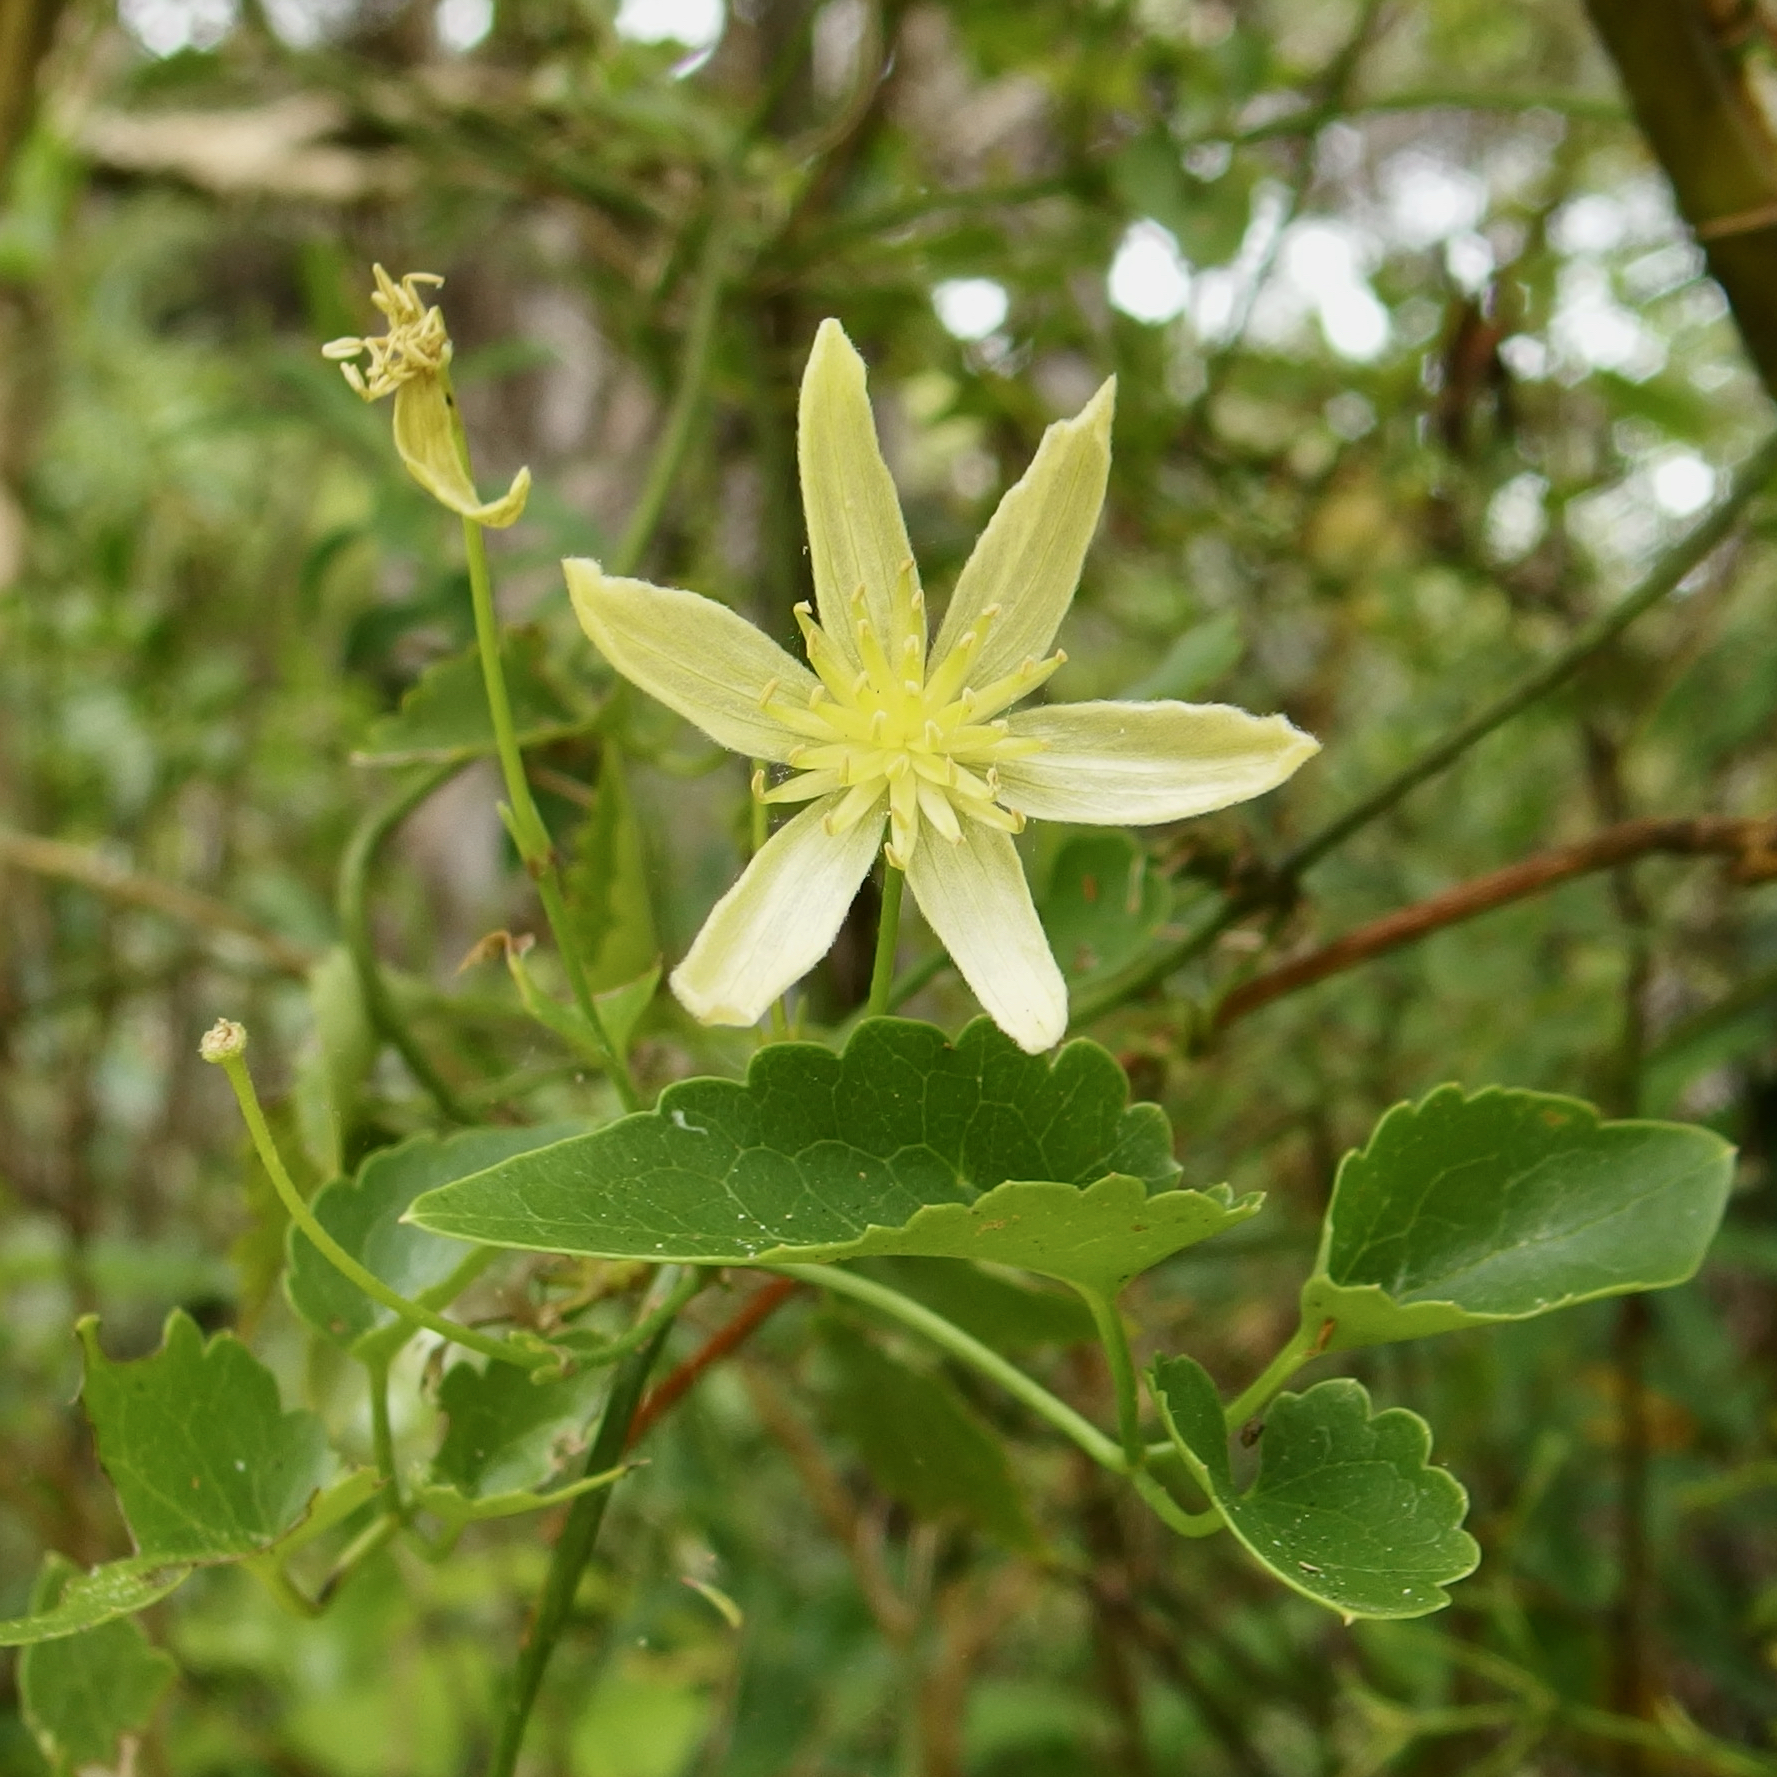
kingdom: Plantae
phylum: Tracheophyta
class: Magnoliopsida
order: Ranunculales
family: Ranunculaceae
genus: Clematis
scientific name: Clematis forsteri
